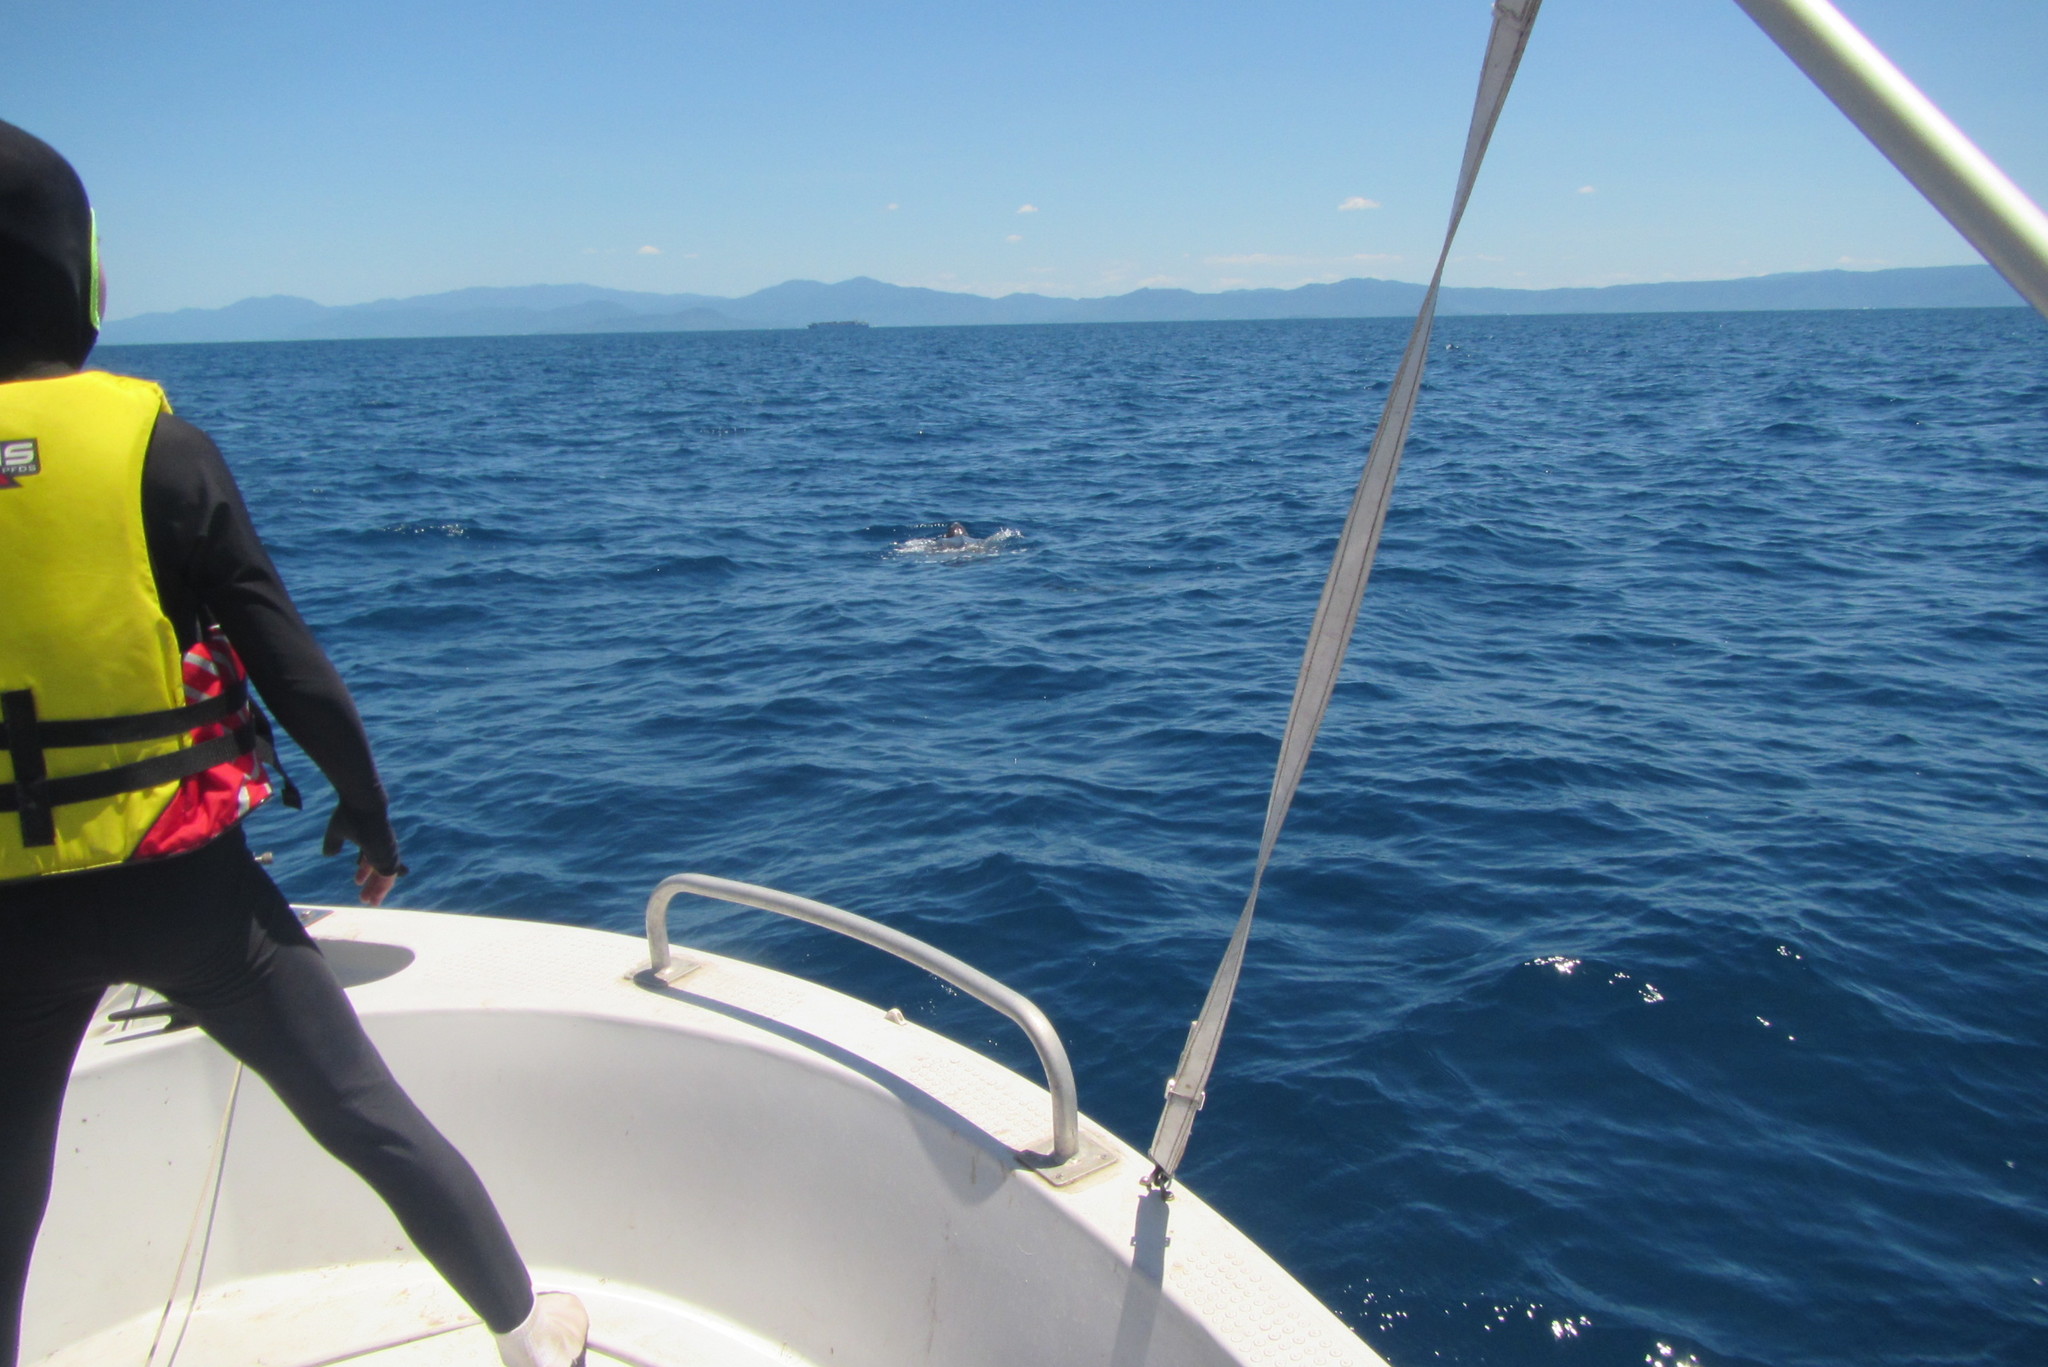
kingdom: Animalia
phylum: Chordata
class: Testudines
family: Dermochelyidae
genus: Dermochelys
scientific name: Dermochelys coriacea
